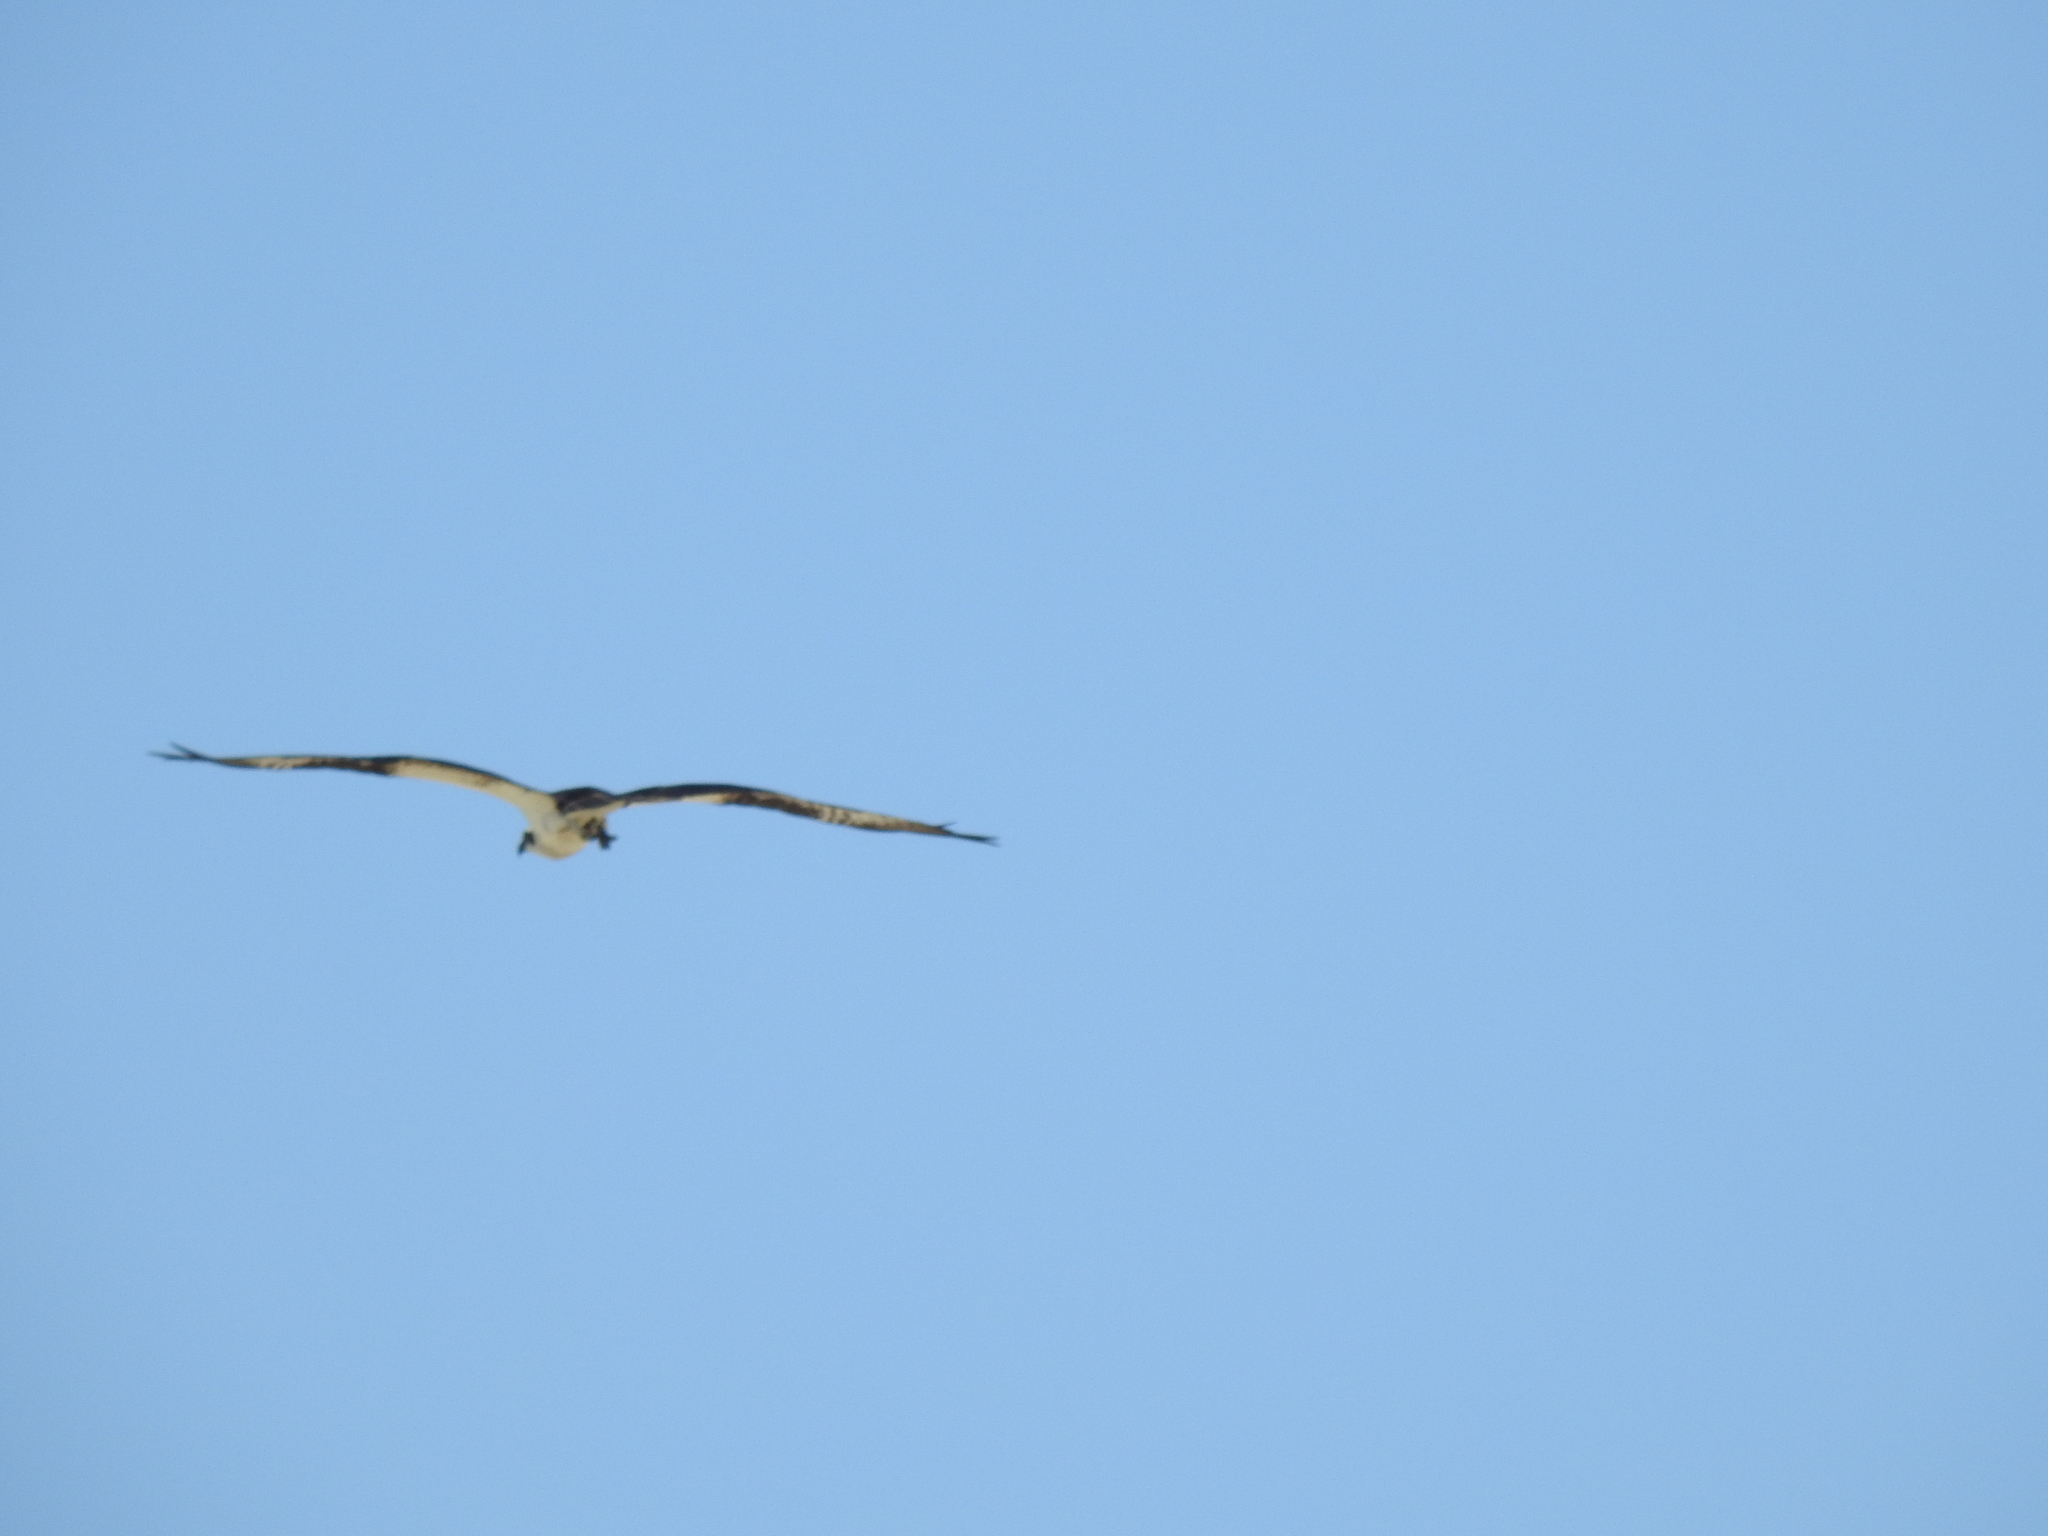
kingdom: Animalia
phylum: Chordata
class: Aves
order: Accipitriformes
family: Pandionidae
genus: Pandion
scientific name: Pandion haliaetus
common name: Osprey
